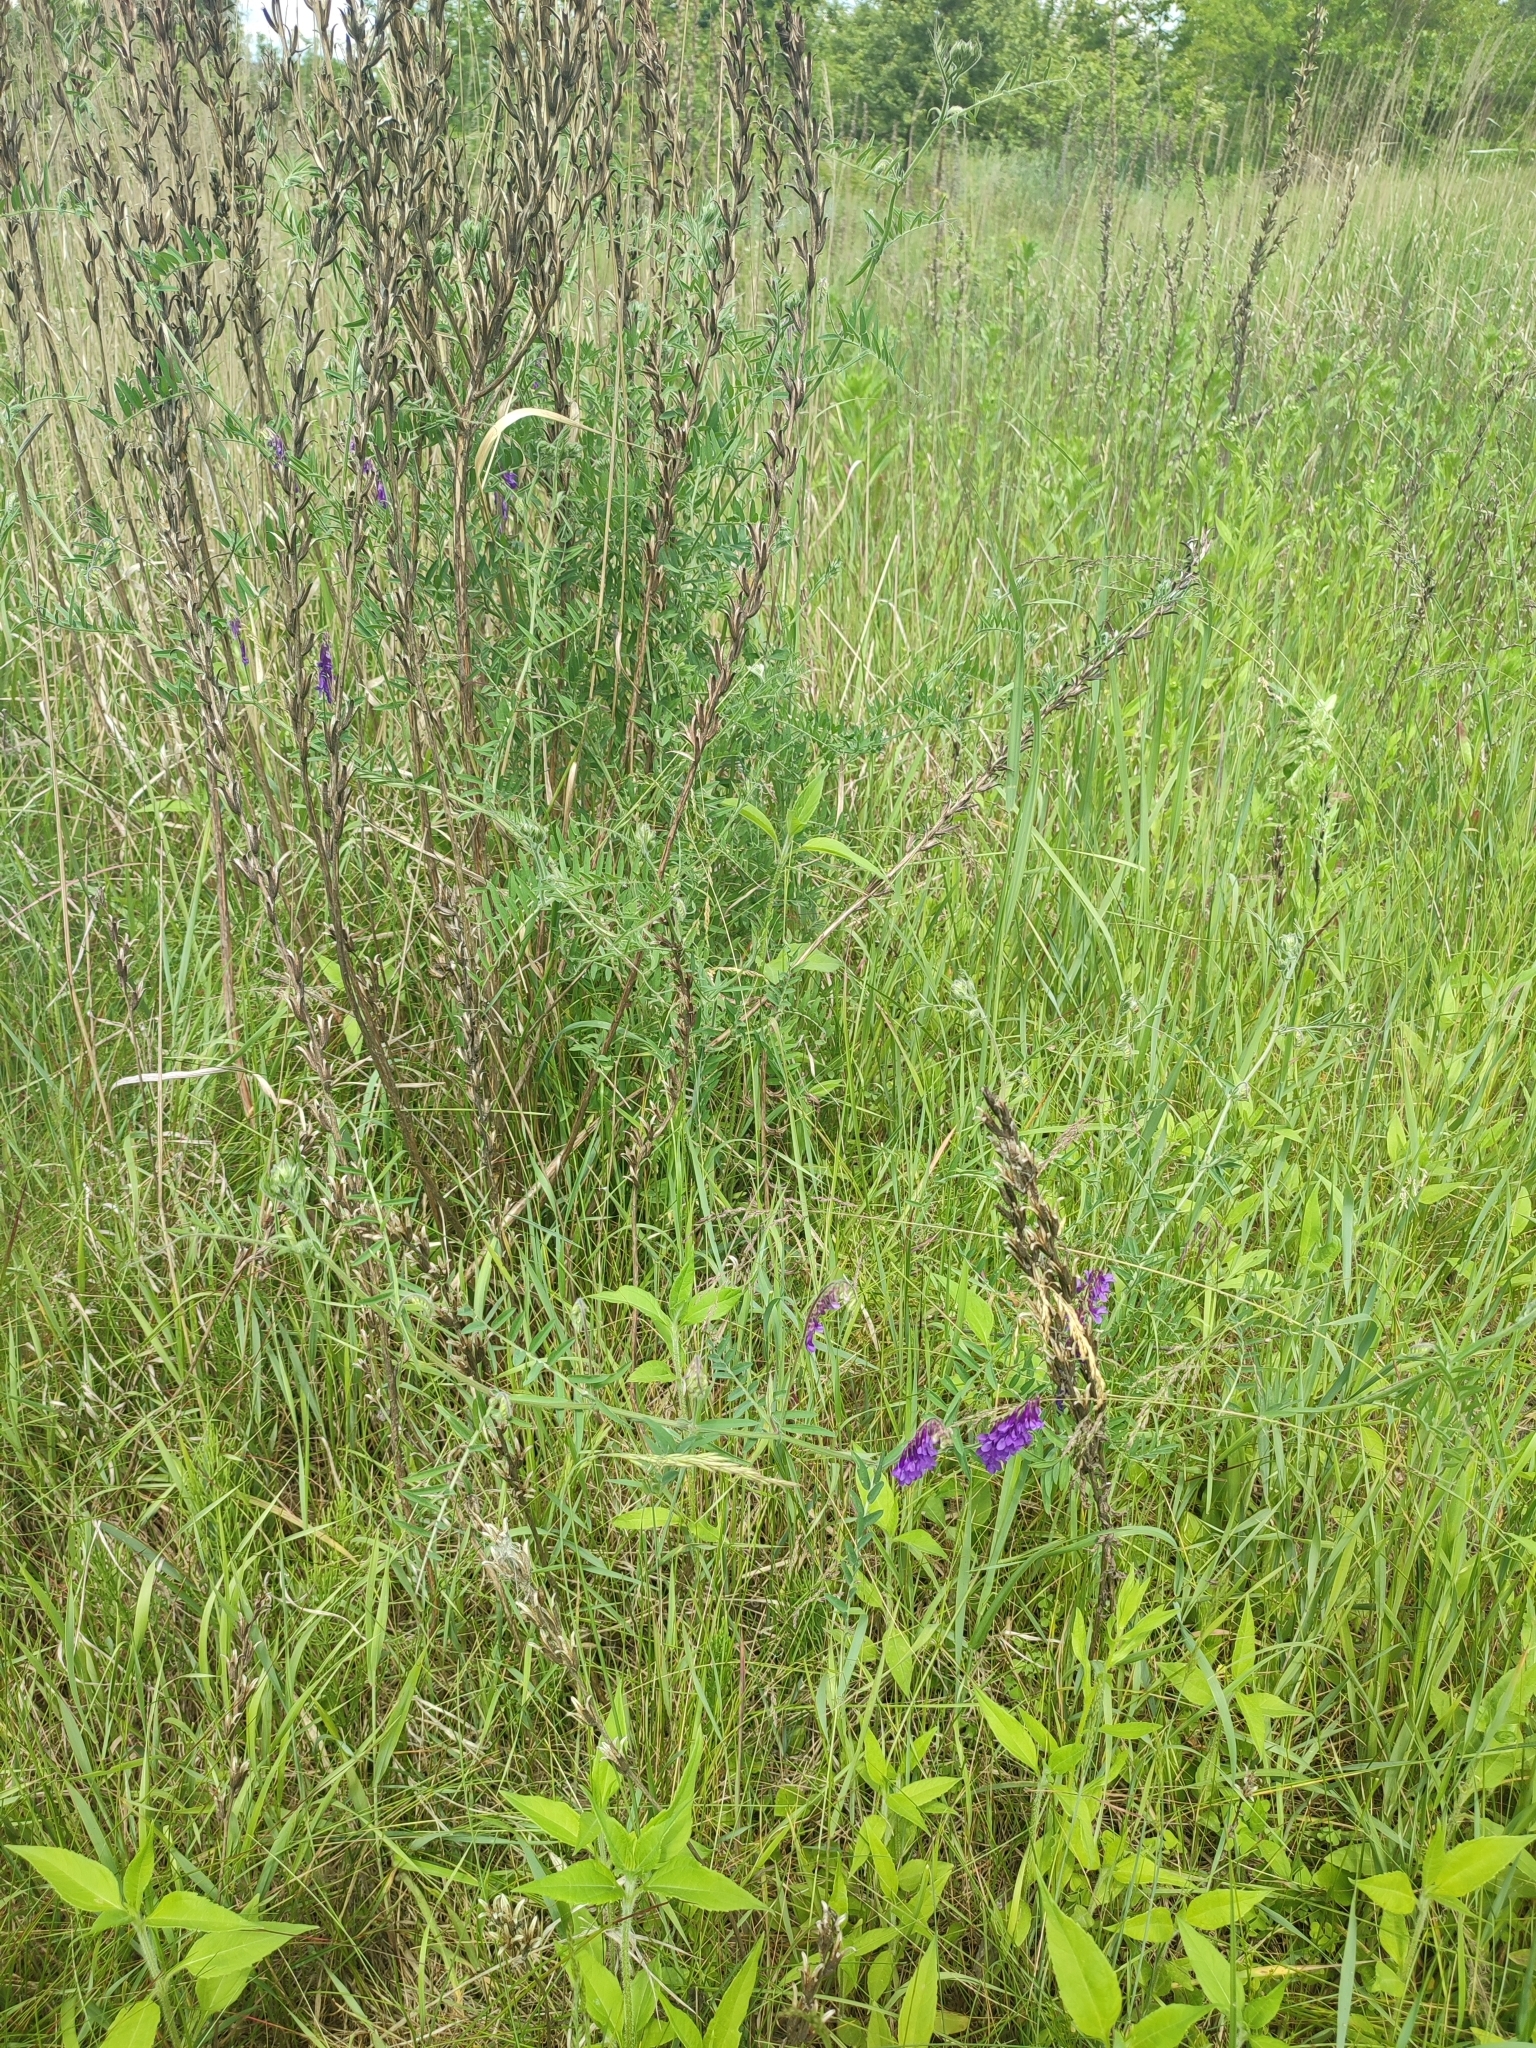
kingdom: Plantae
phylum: Tracheophyta
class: Magnoliopsida
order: Fabales
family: Fabaceae
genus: Vicia
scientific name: Vicia villosa
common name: Fodder vetch
